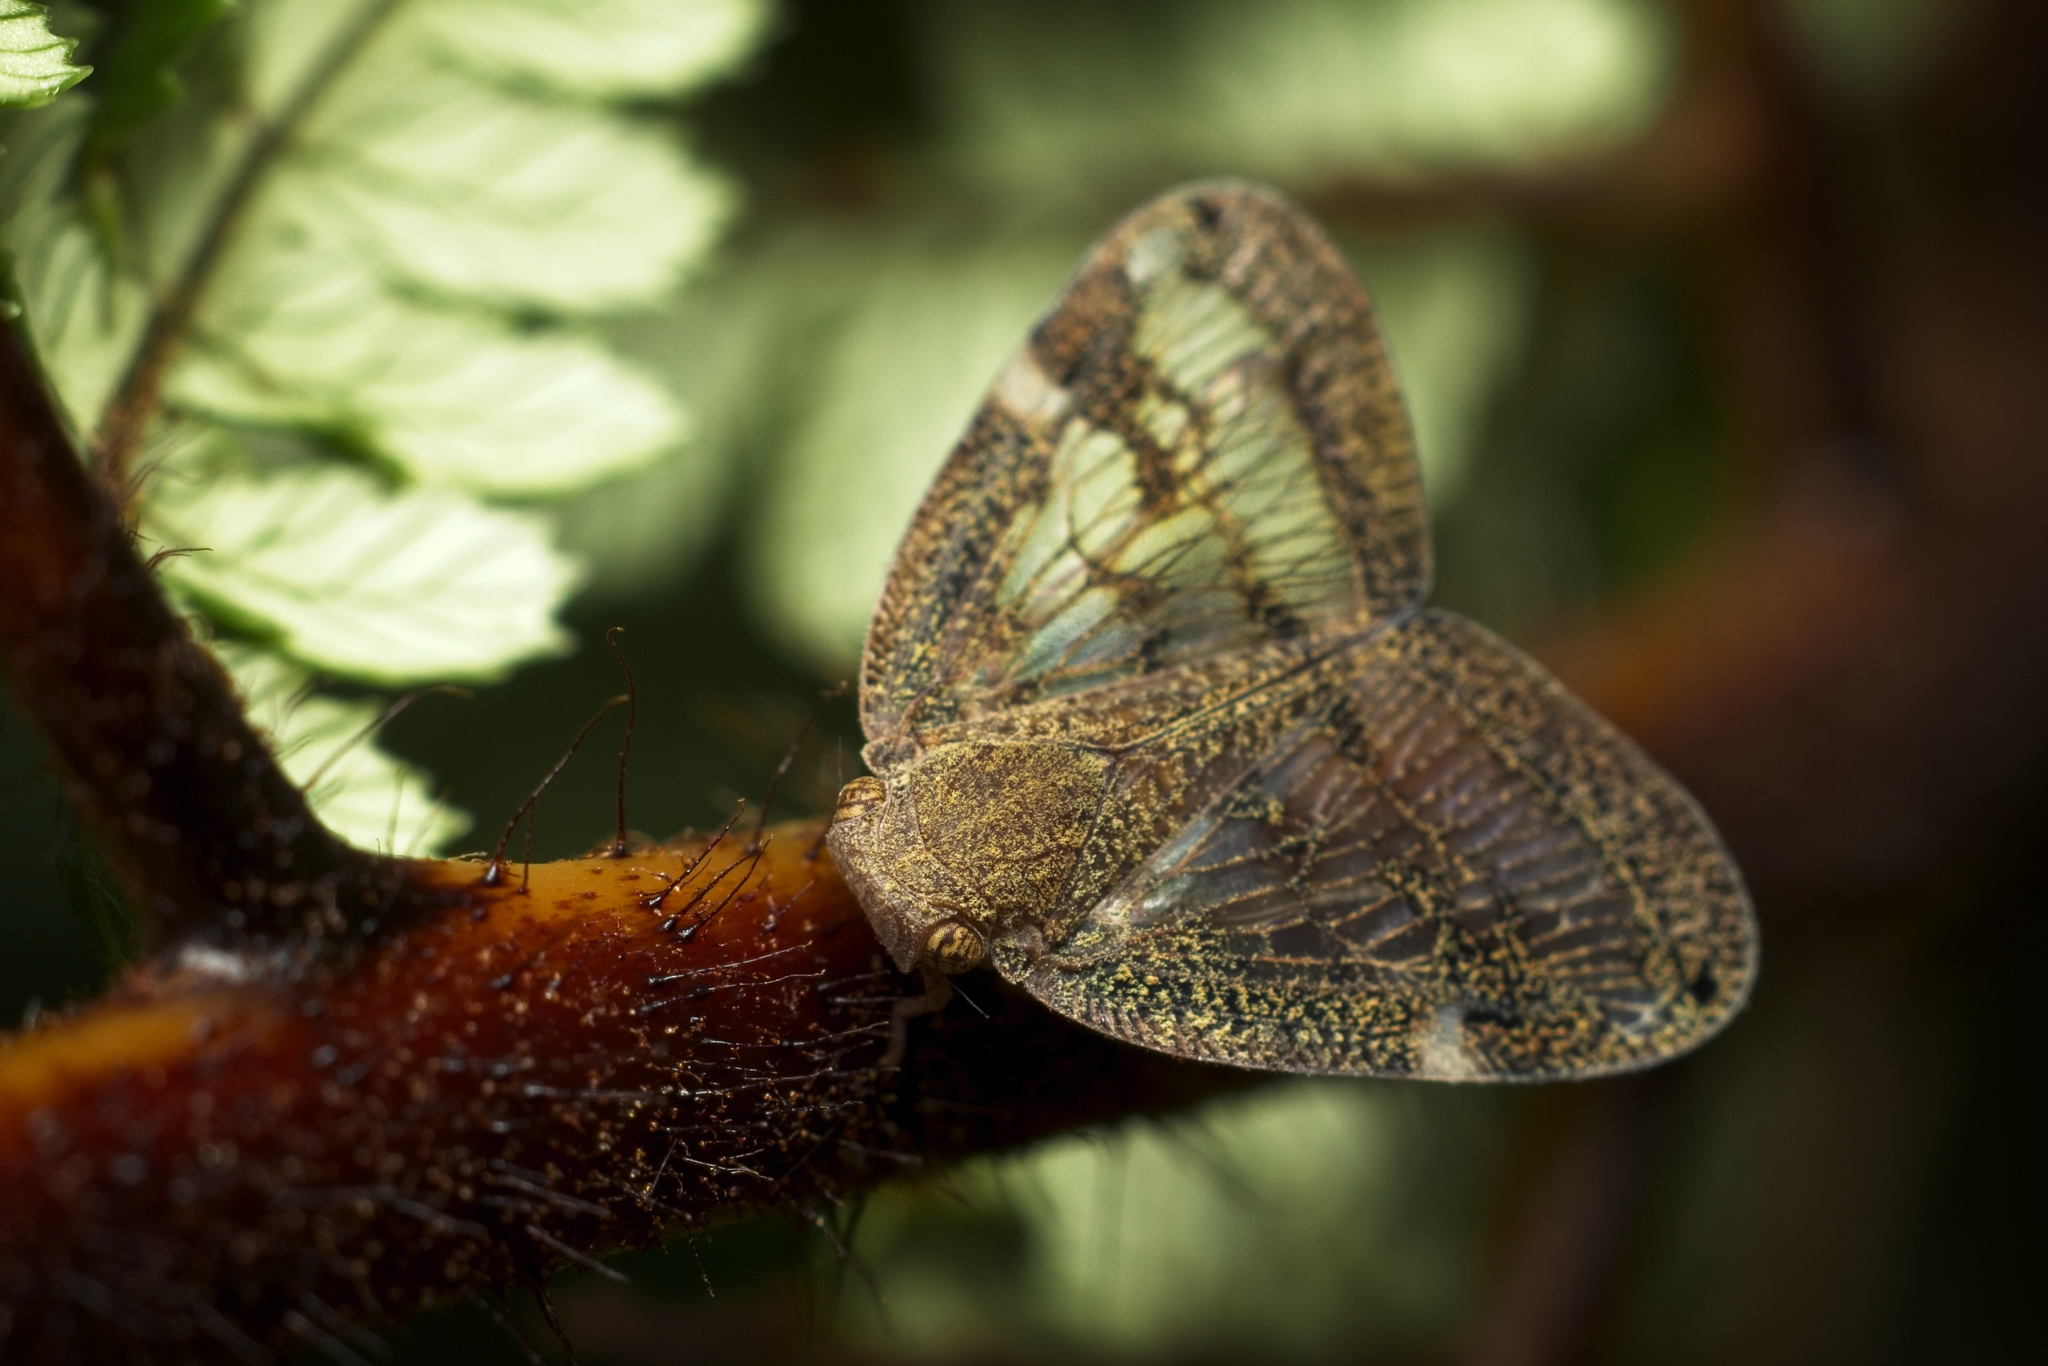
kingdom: Animalia
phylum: Arthropoda
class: Insecta
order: Hemiptera
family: Ricaniidae
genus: Scolypopa
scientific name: Scolypopa australis
